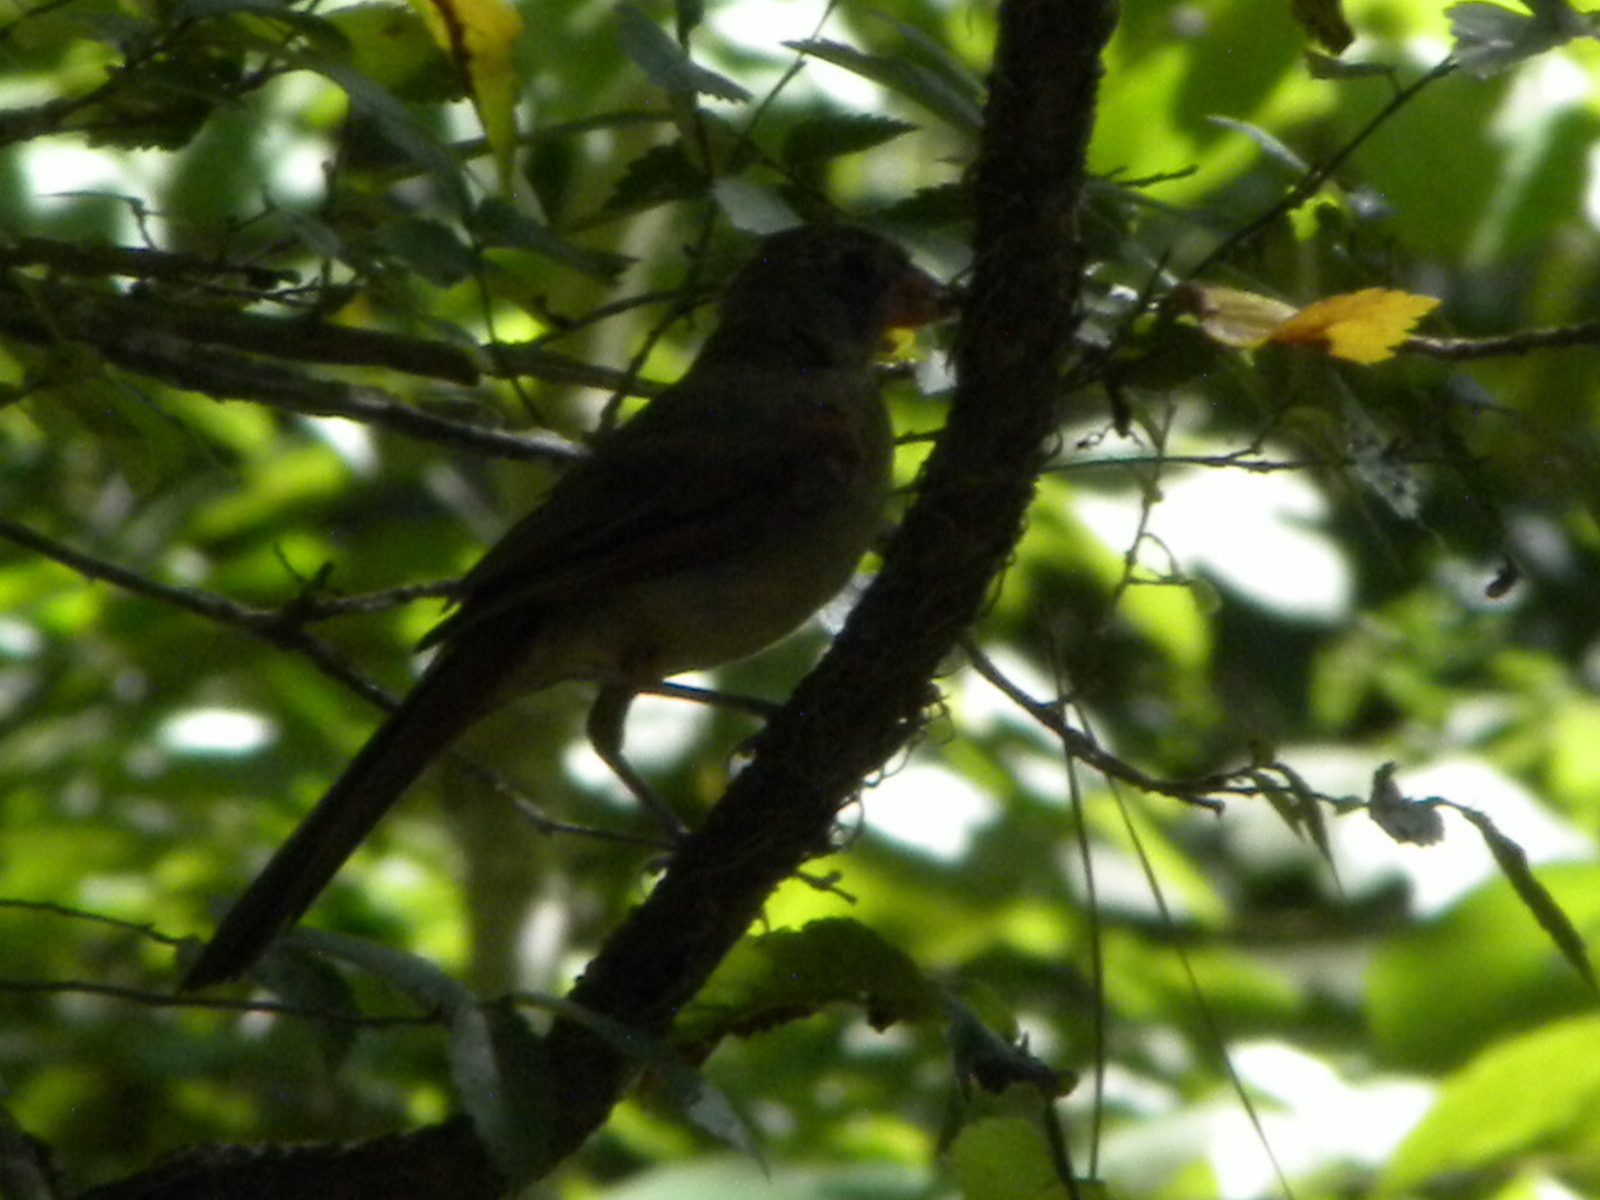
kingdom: Animalia
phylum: Chordata
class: Aves
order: Passeriformes
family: Cardinalidae
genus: Cardinalis
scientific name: Cardinalis cardinalis
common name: Northern cardinal
